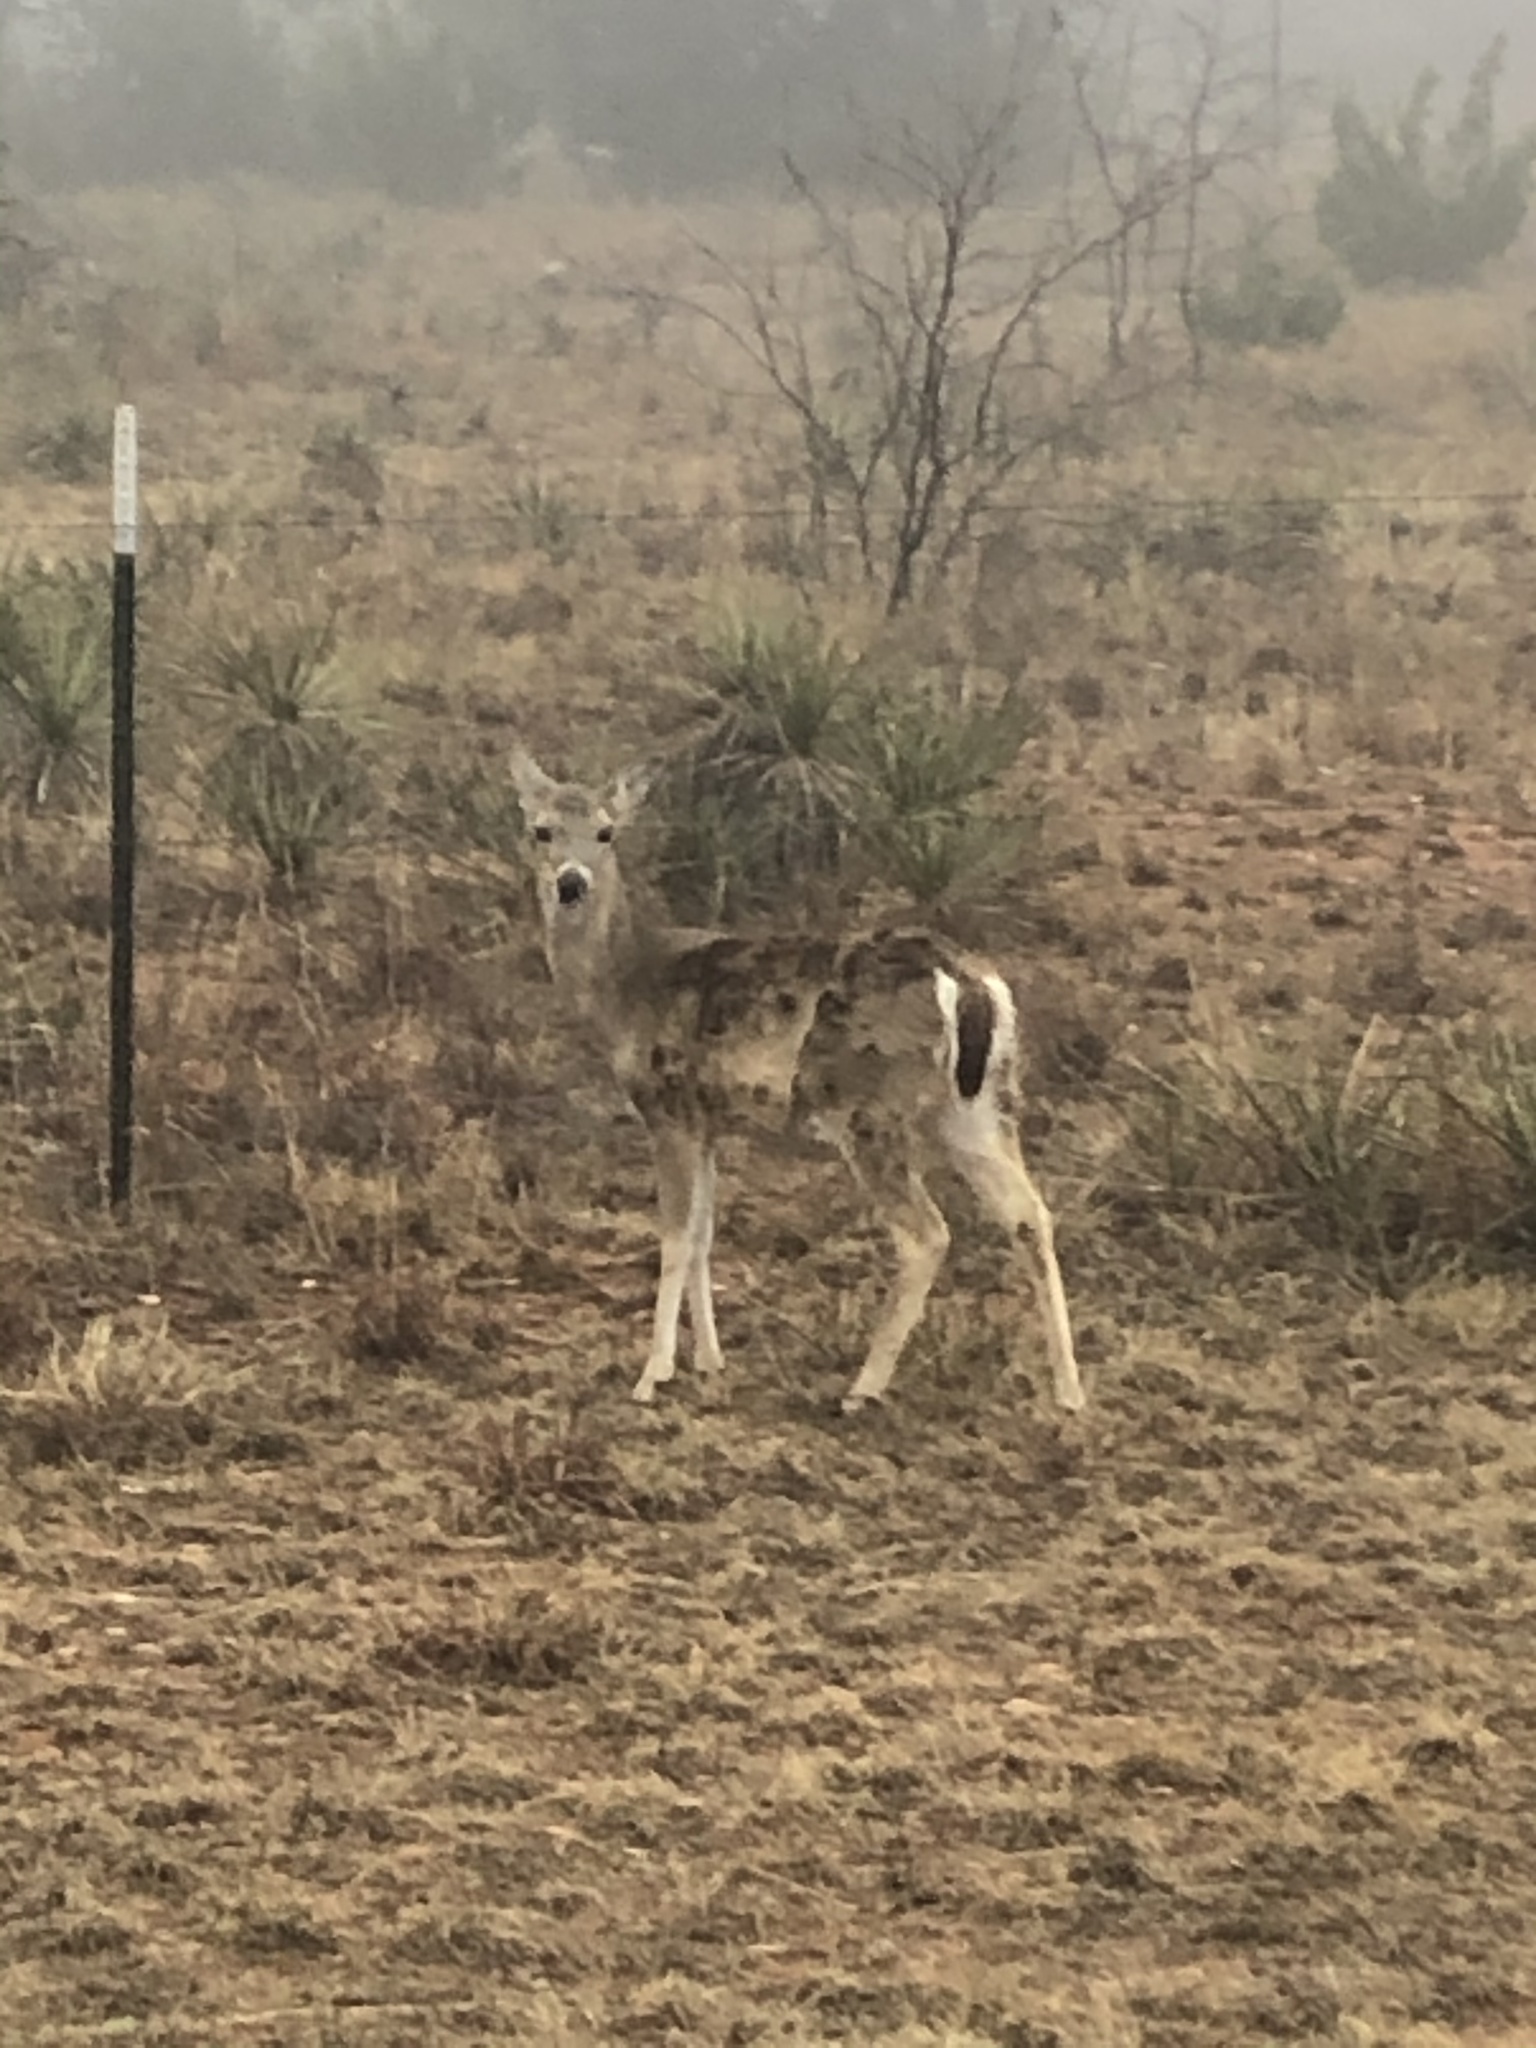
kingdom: Animalia
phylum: Chordata
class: Mammalia
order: Artiodactyla
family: Cervidae
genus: Odocoileus
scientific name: Odocoileus virginianus
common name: White-tailed deer
